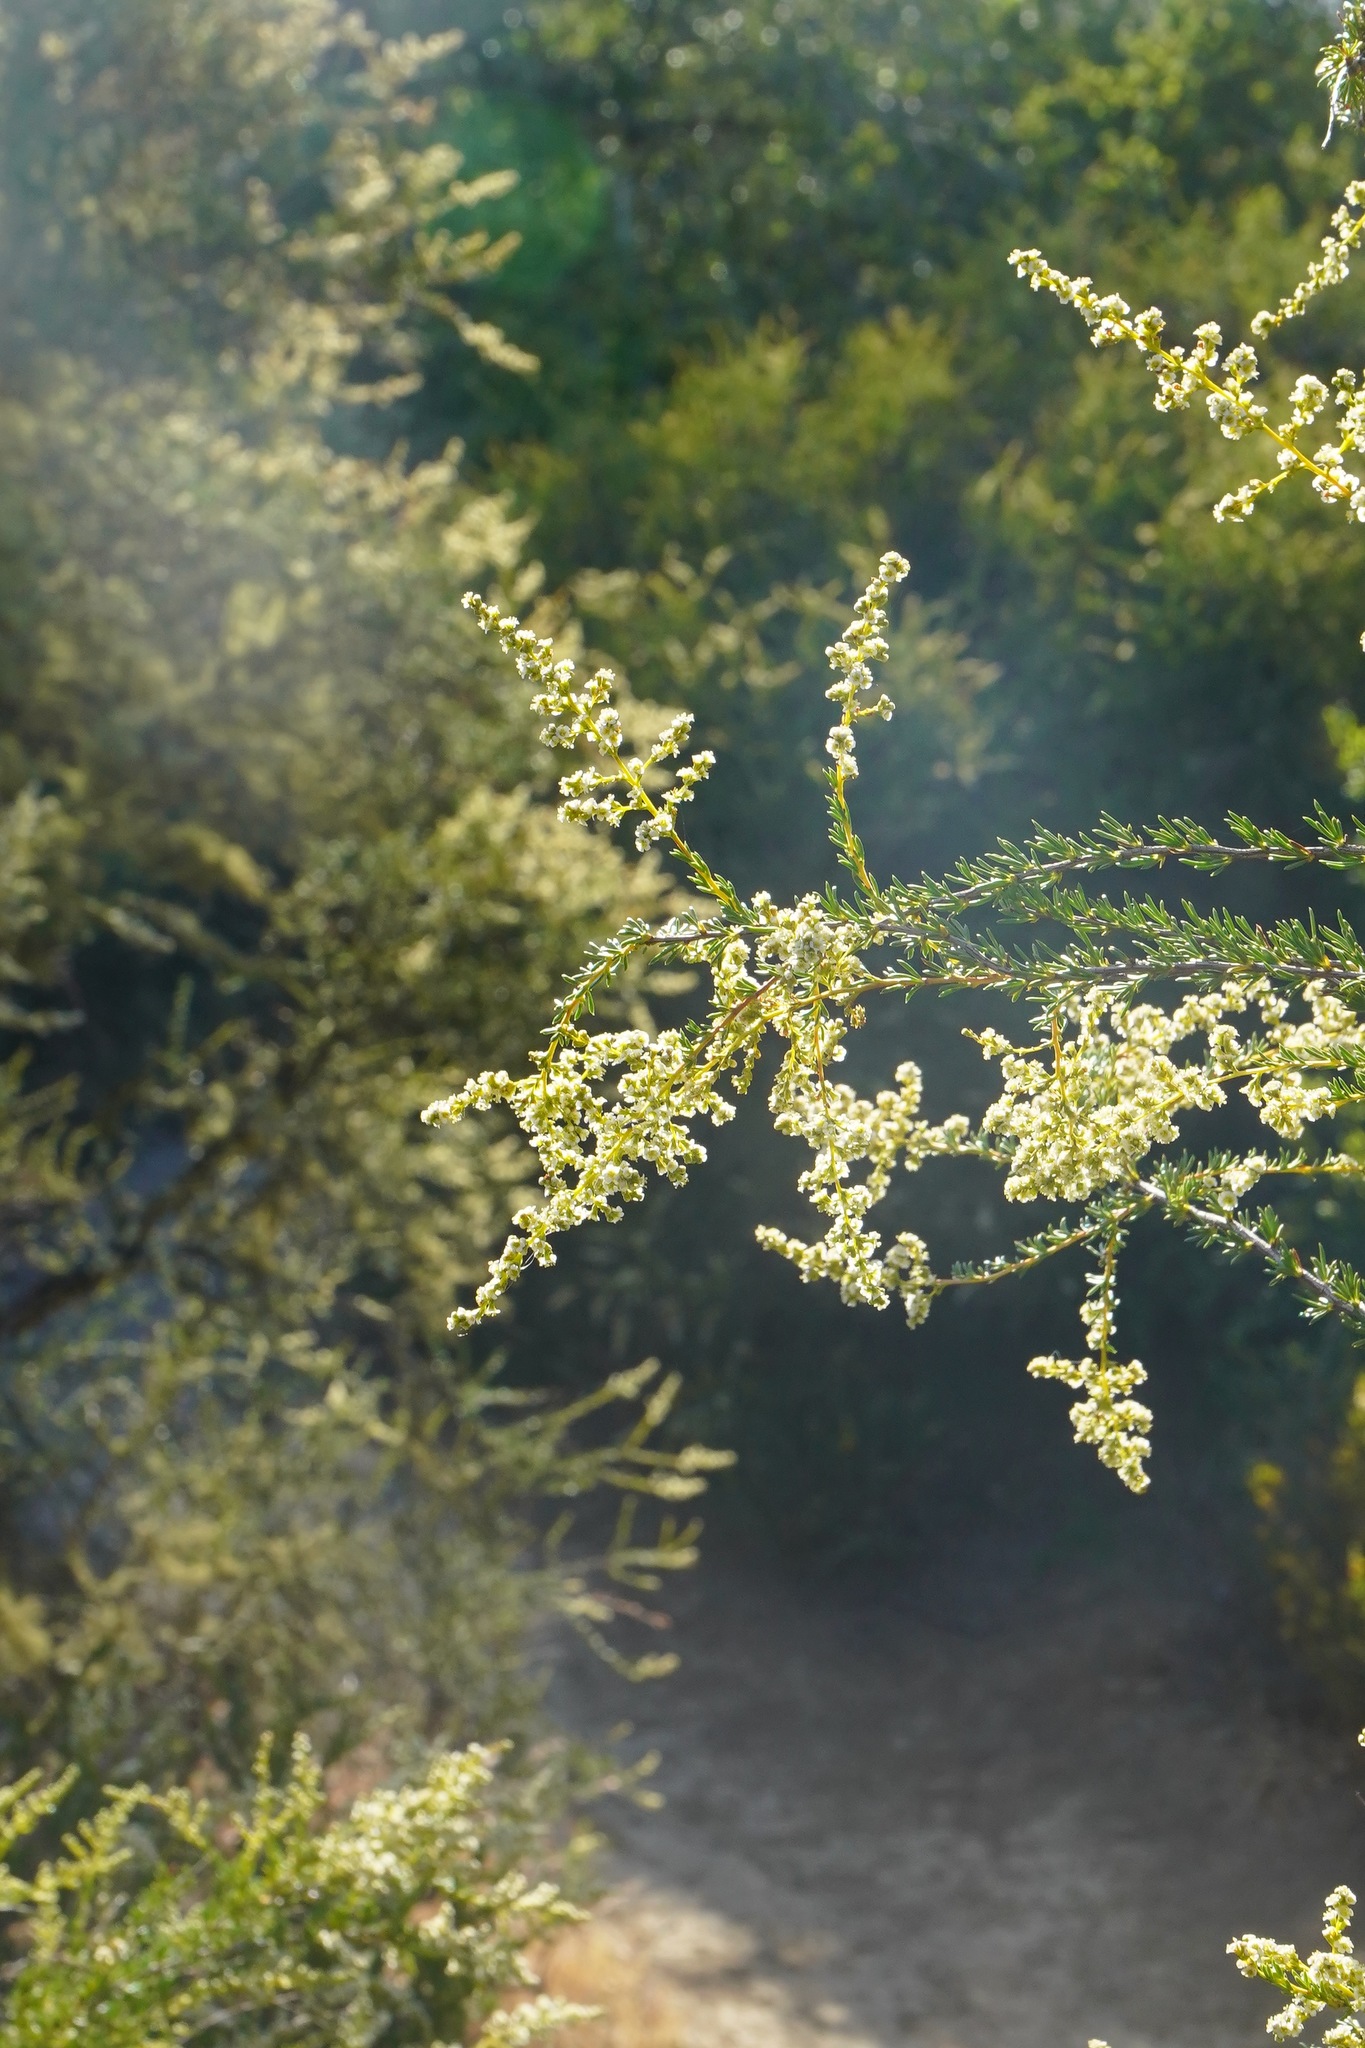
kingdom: Plantae
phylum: Tracheophyta
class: Magnoliopsida
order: Rosales
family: Rosaceae
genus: Adenostoma
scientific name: Adenostoma fasciculatum
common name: Chamise
